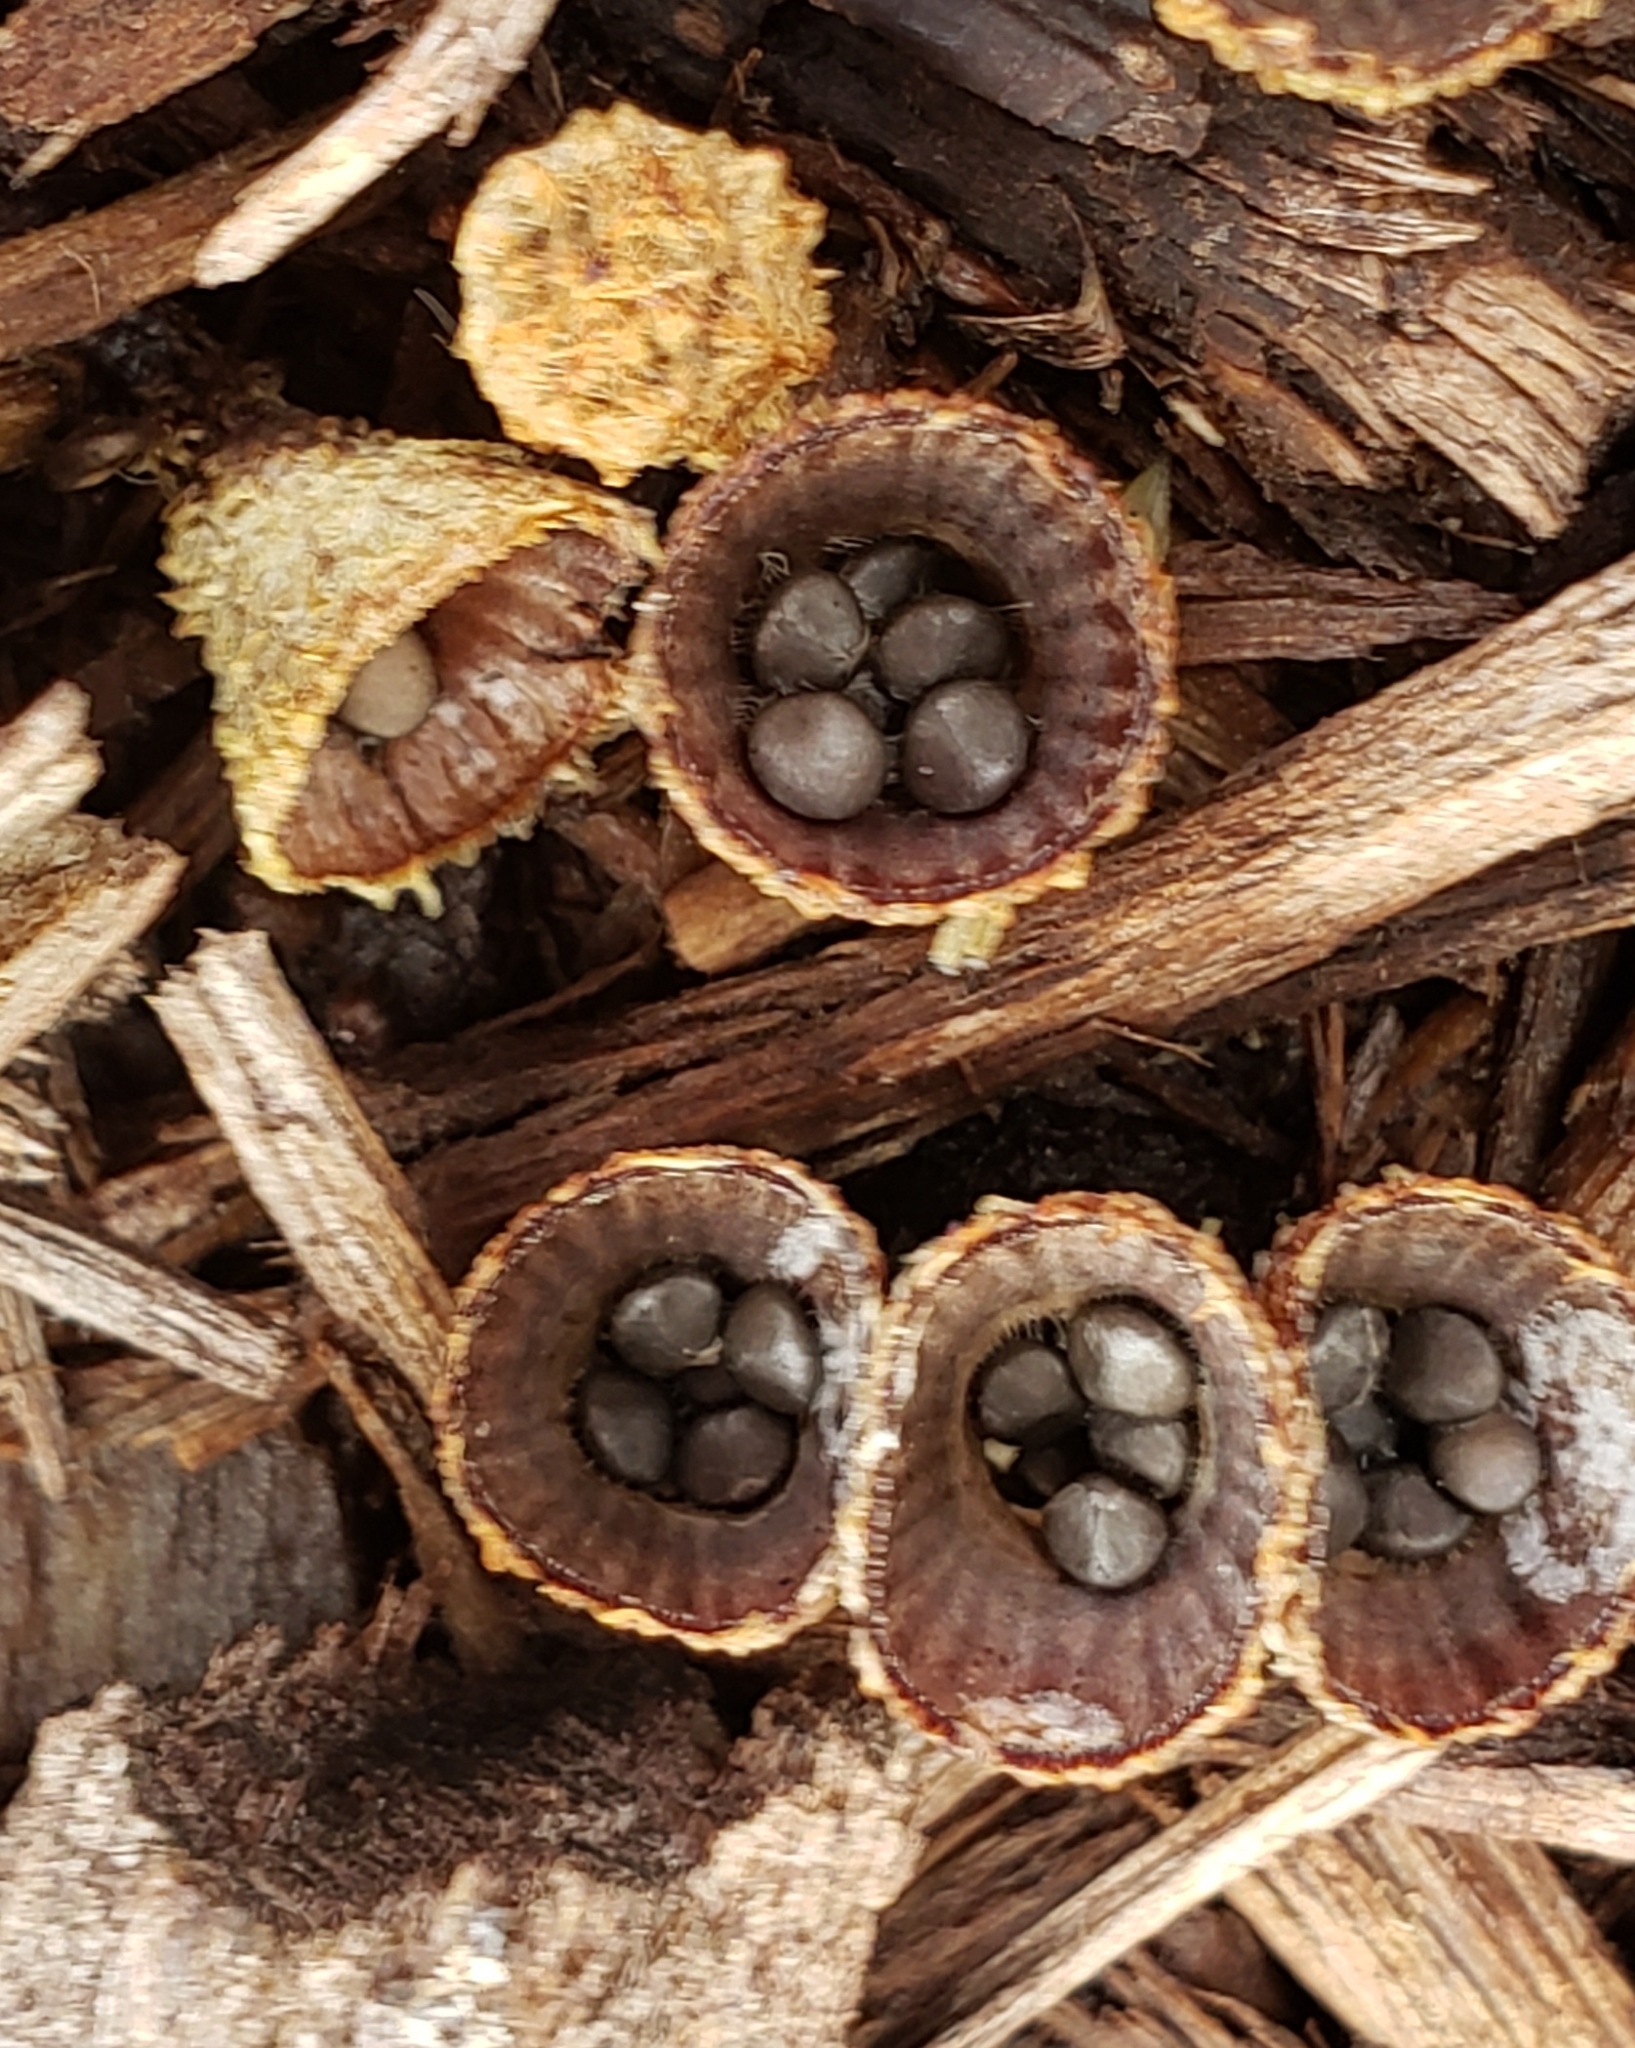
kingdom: Fungi
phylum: Basidiomycota
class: Agaricomycetes
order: Agaricales
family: Agaricaceae
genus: Cyathus
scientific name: Cyathus striatus
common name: Fluted bird's nest
